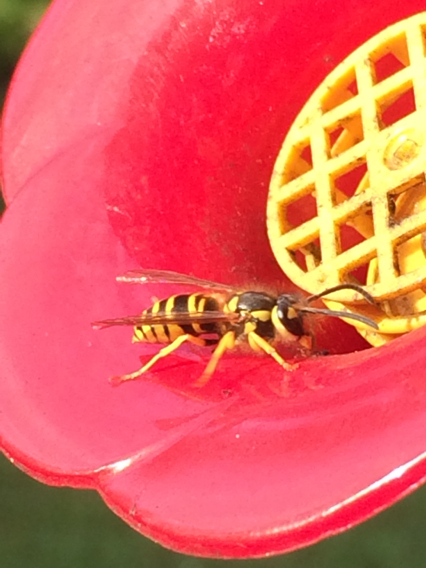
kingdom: Animalia
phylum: Arthropoda
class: Insecta
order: Hymenoptera
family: Vespidae
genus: Vespula
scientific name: Vespula maculifrons
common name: Eastern yellowjacket
